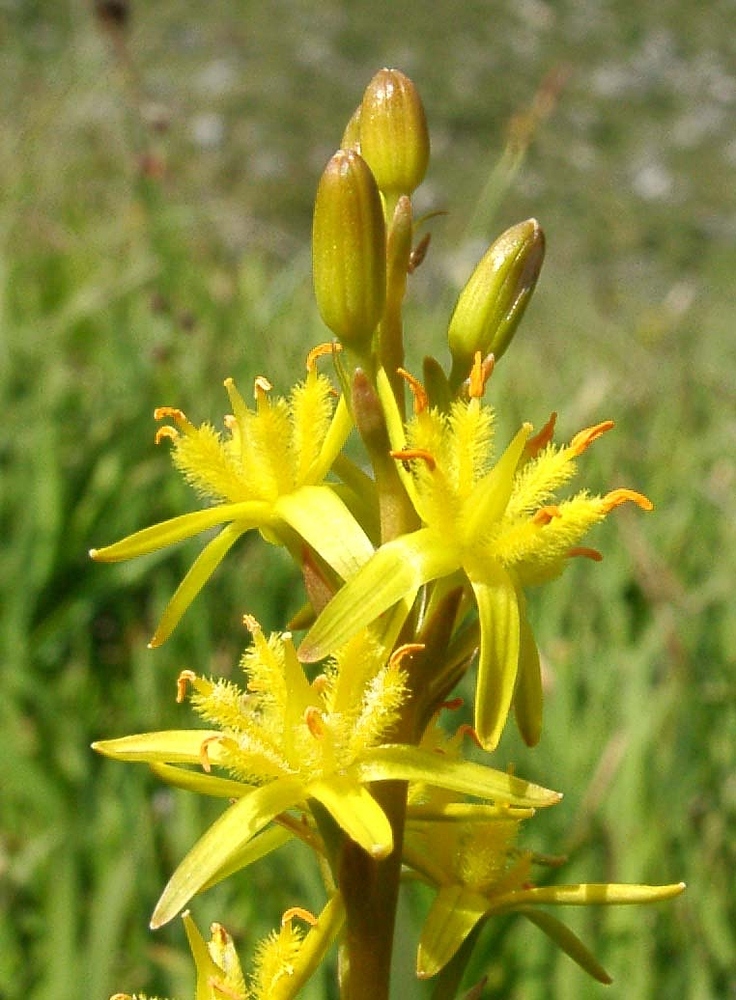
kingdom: Plantae
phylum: Tracheophyta
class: Liliopsida
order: Dioscoreales
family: Nartheciaceae
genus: Narthecium
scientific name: Narthecium ossifragum
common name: Bog asphodel
